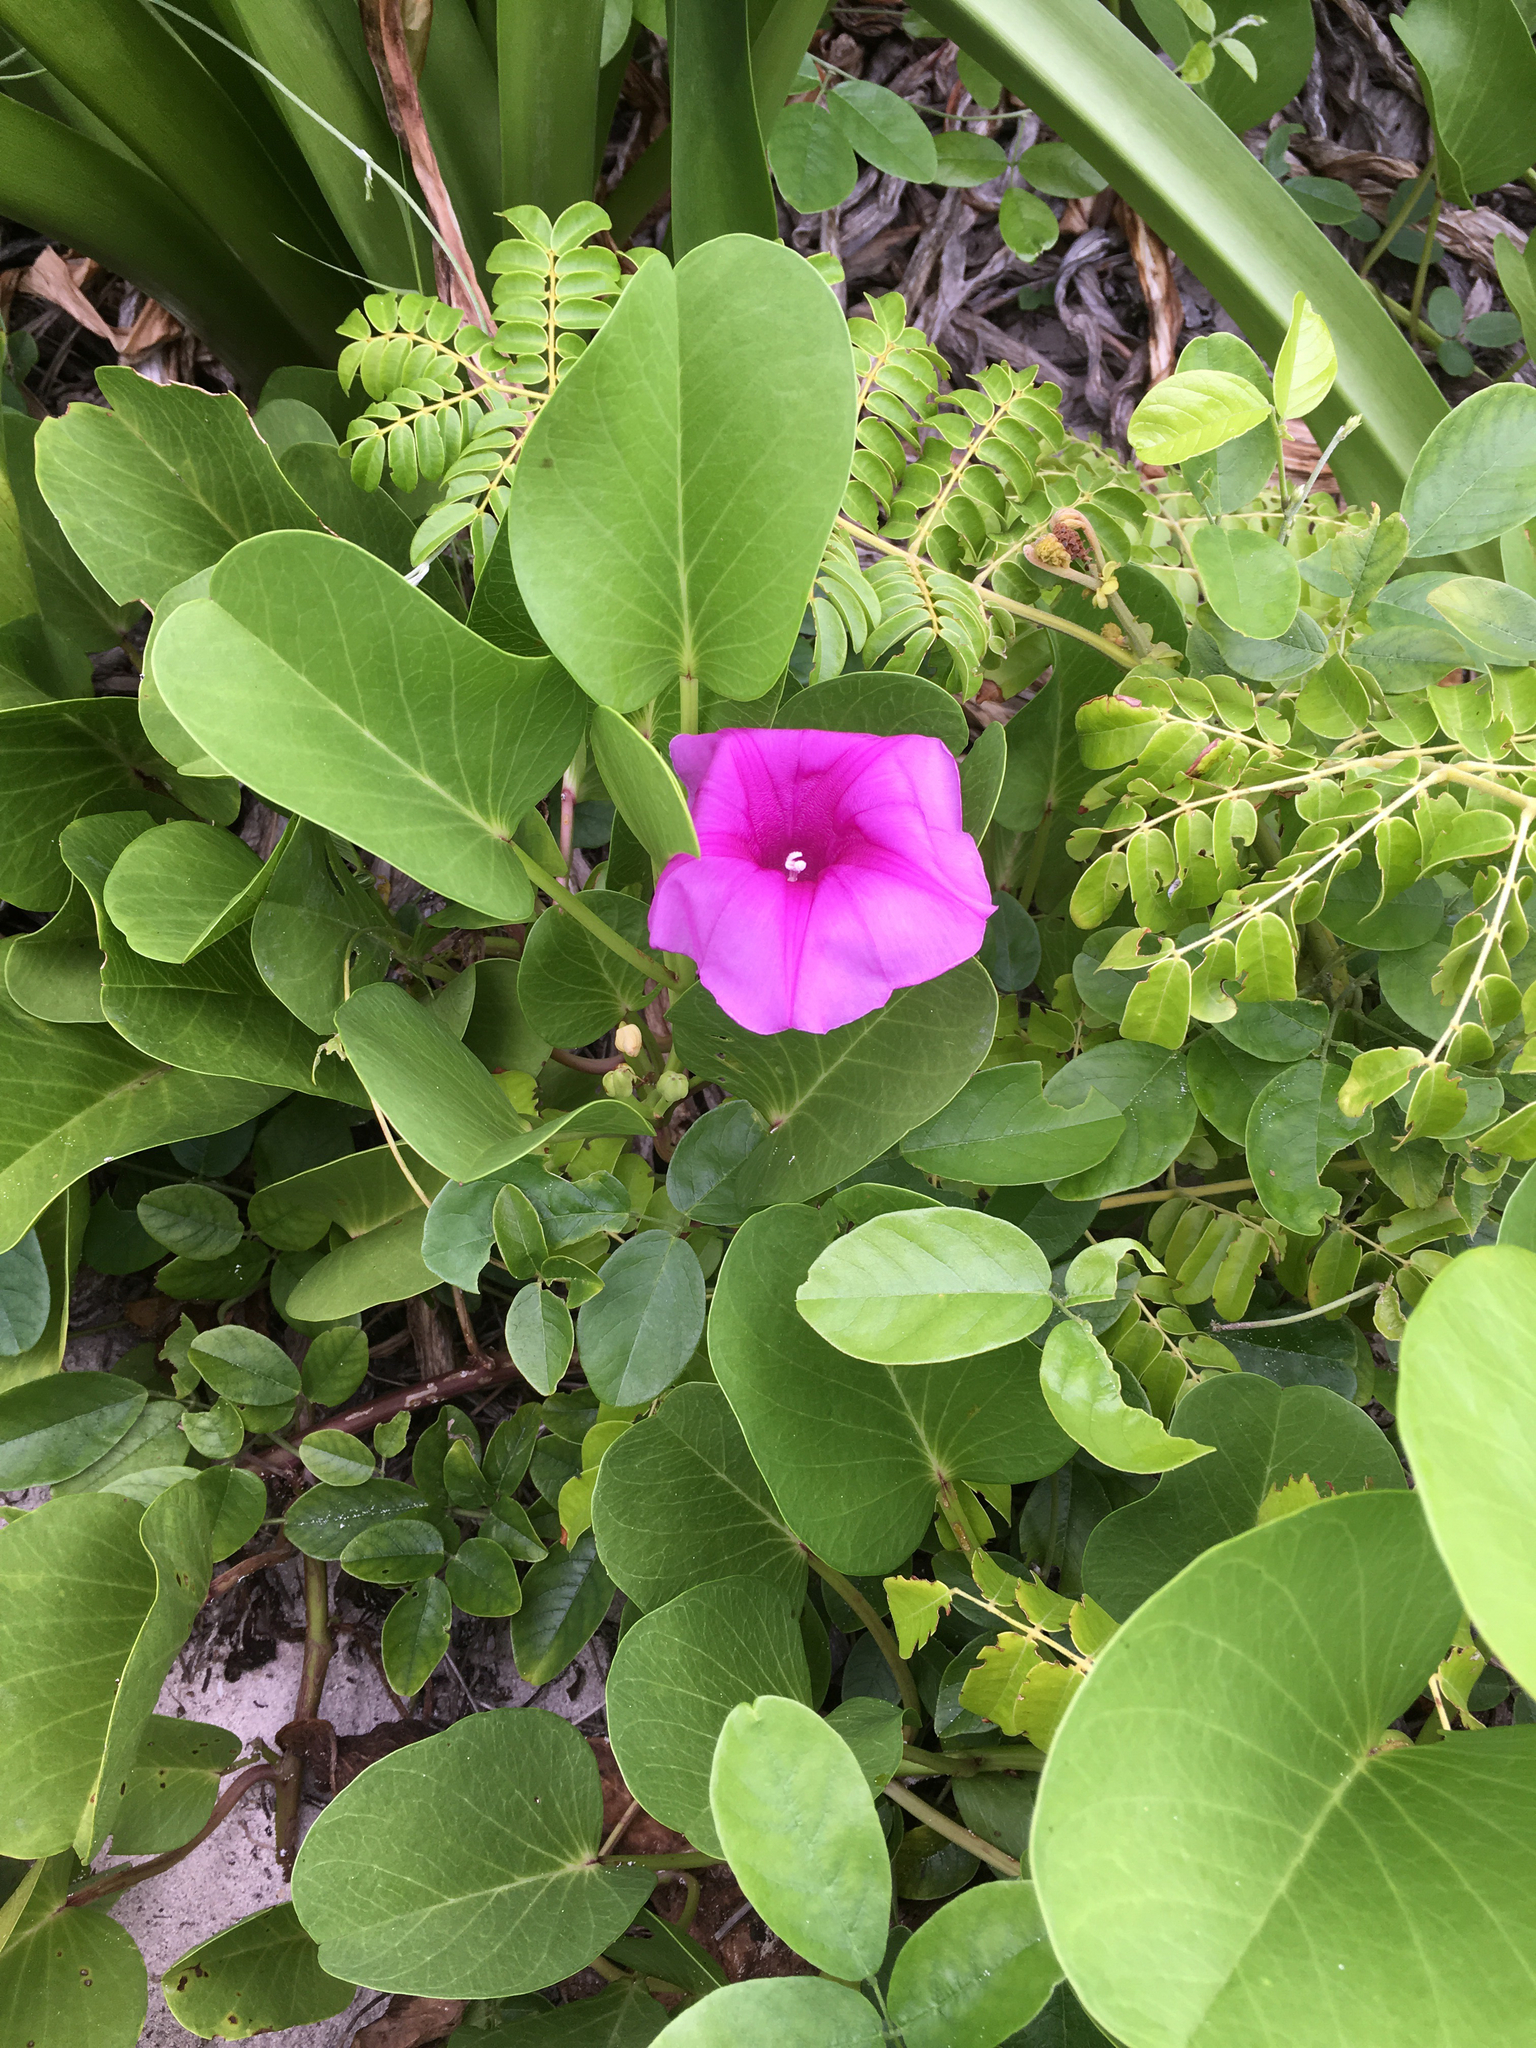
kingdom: Plantae
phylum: Tracheophyta
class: Magnoliopsida
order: Solanales
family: Convolvulaceae
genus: Ipomoea
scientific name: Ipomoea pes-caprae
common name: Beach morning glory
